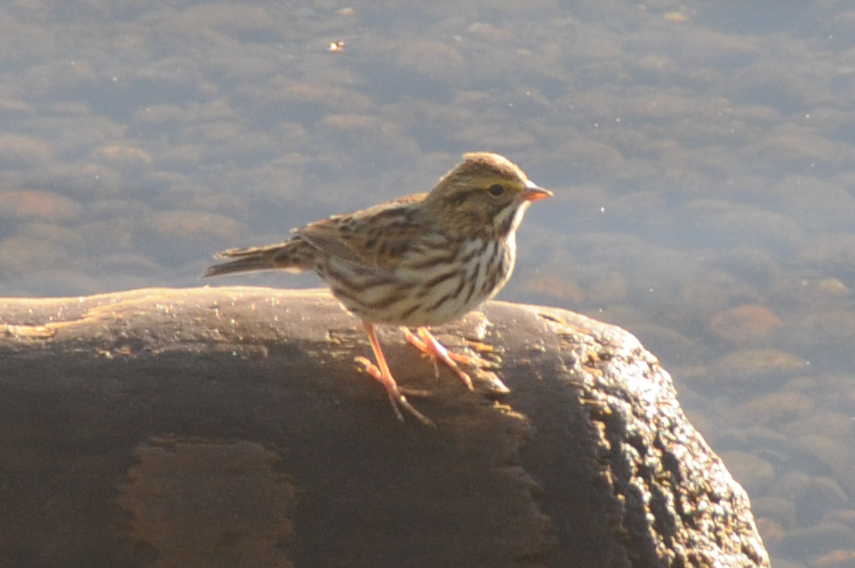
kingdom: Animalia
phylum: Chordata
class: Aves
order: Passeriformes
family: Passerellidae
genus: Passerculus
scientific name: Passerculus sandwichensis
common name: Savannah sparrow
